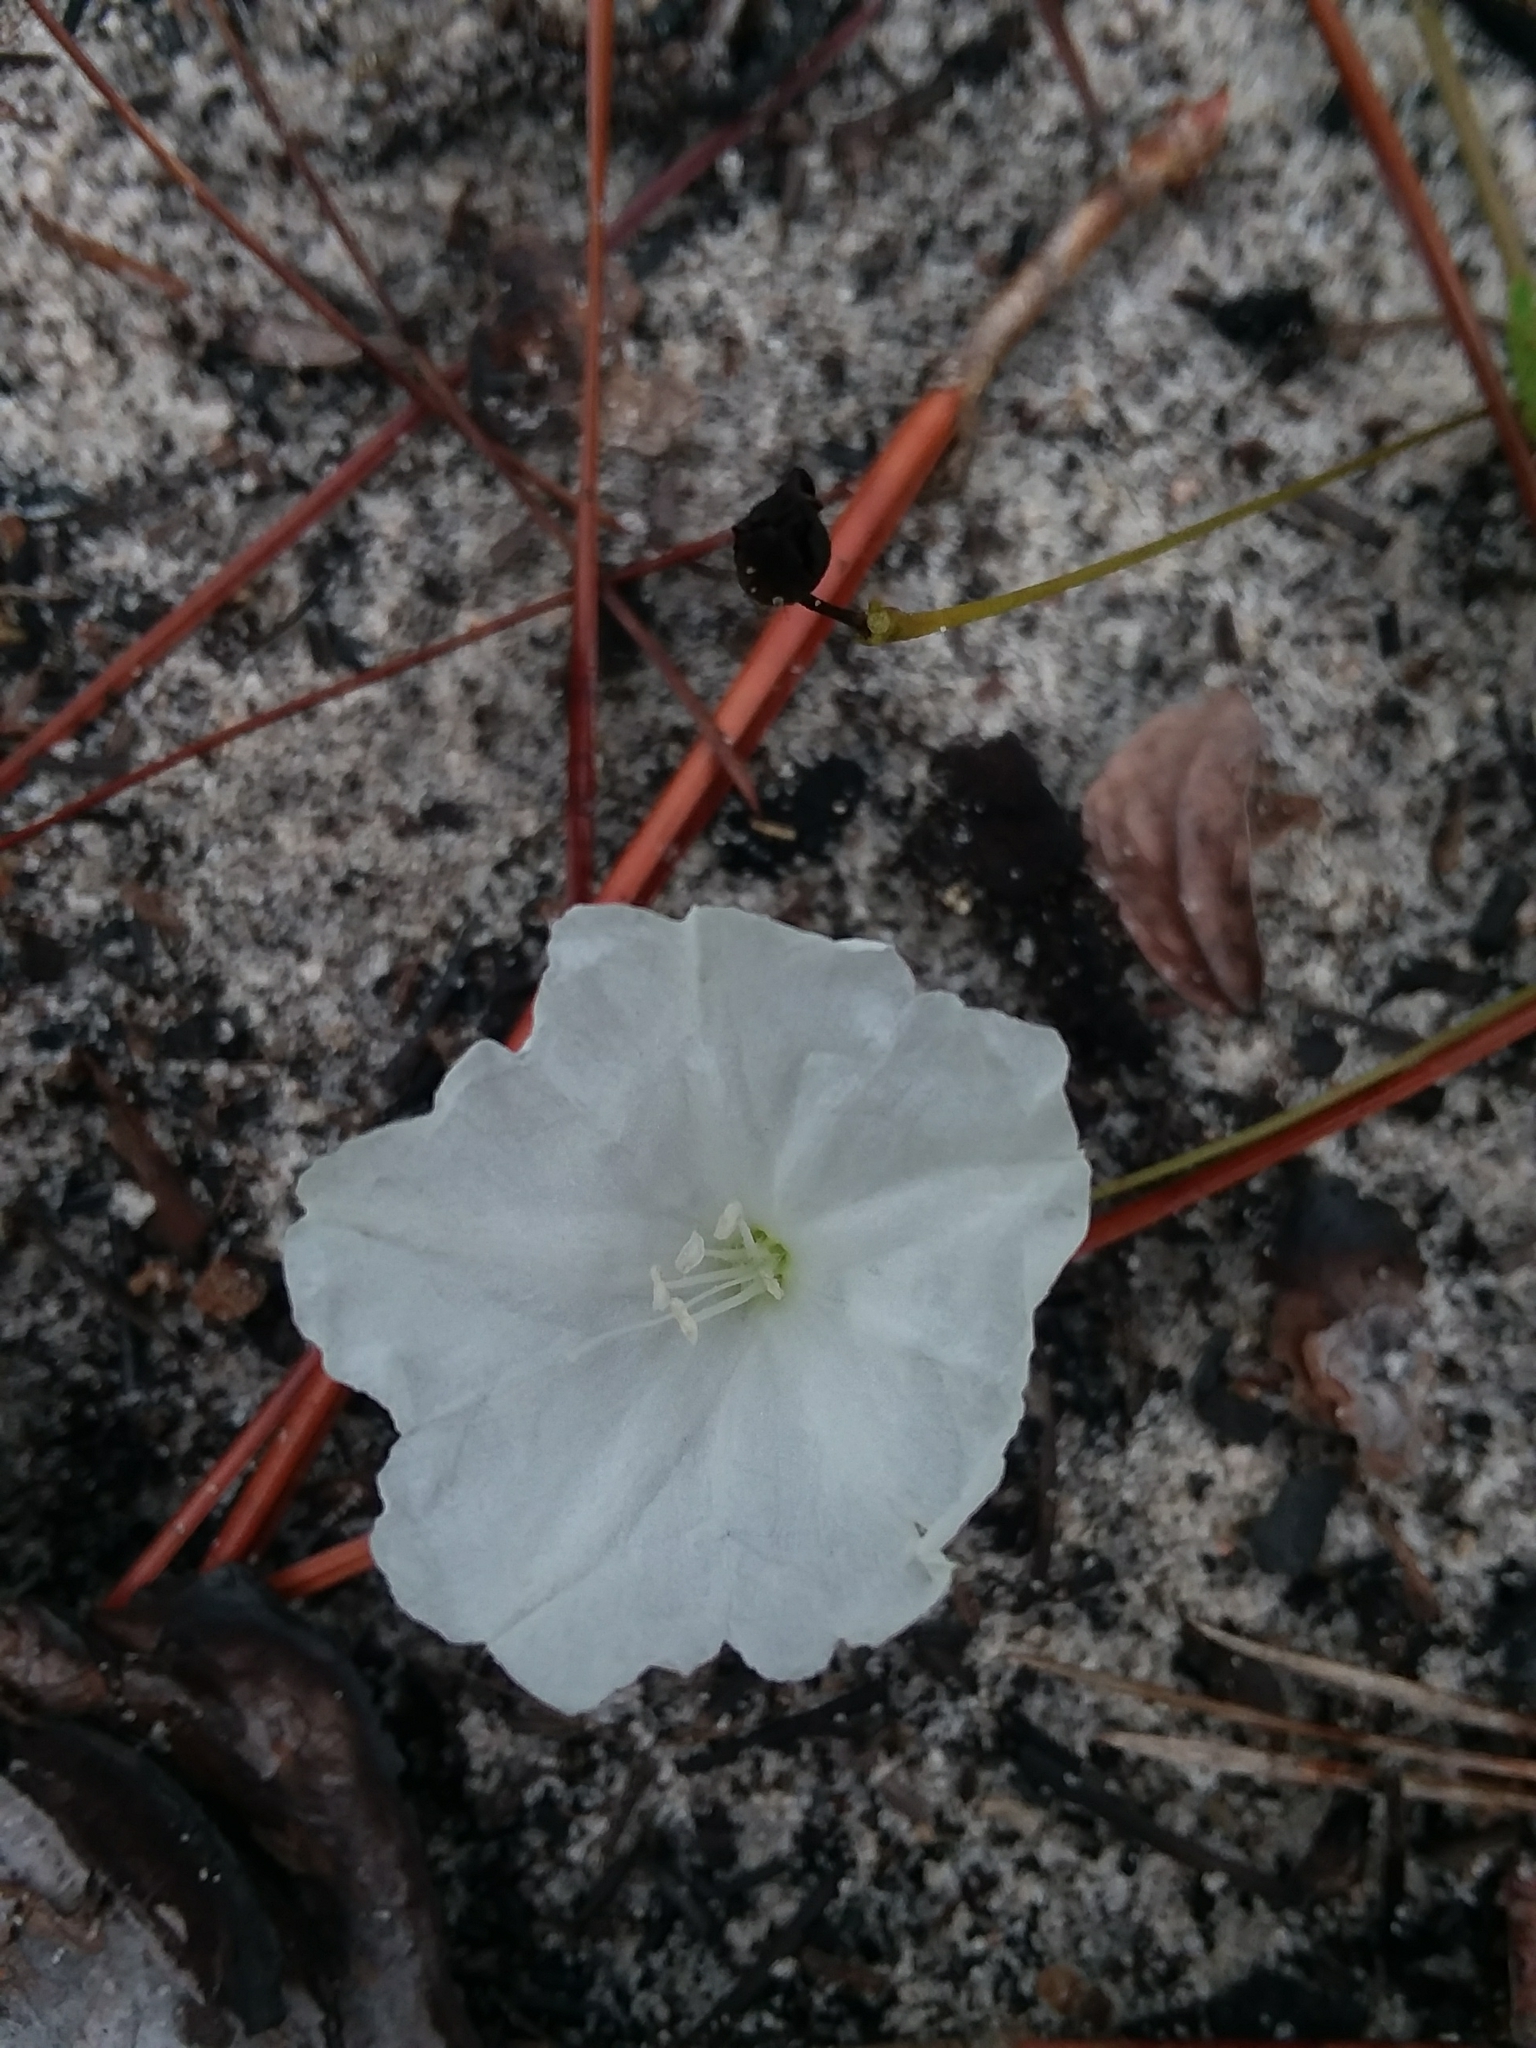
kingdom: Plantae
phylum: Tracheophyta
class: Magnoliopsida
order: Solanales
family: Convolvulaceae
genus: Stylisma
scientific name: Stylisma humistrata
